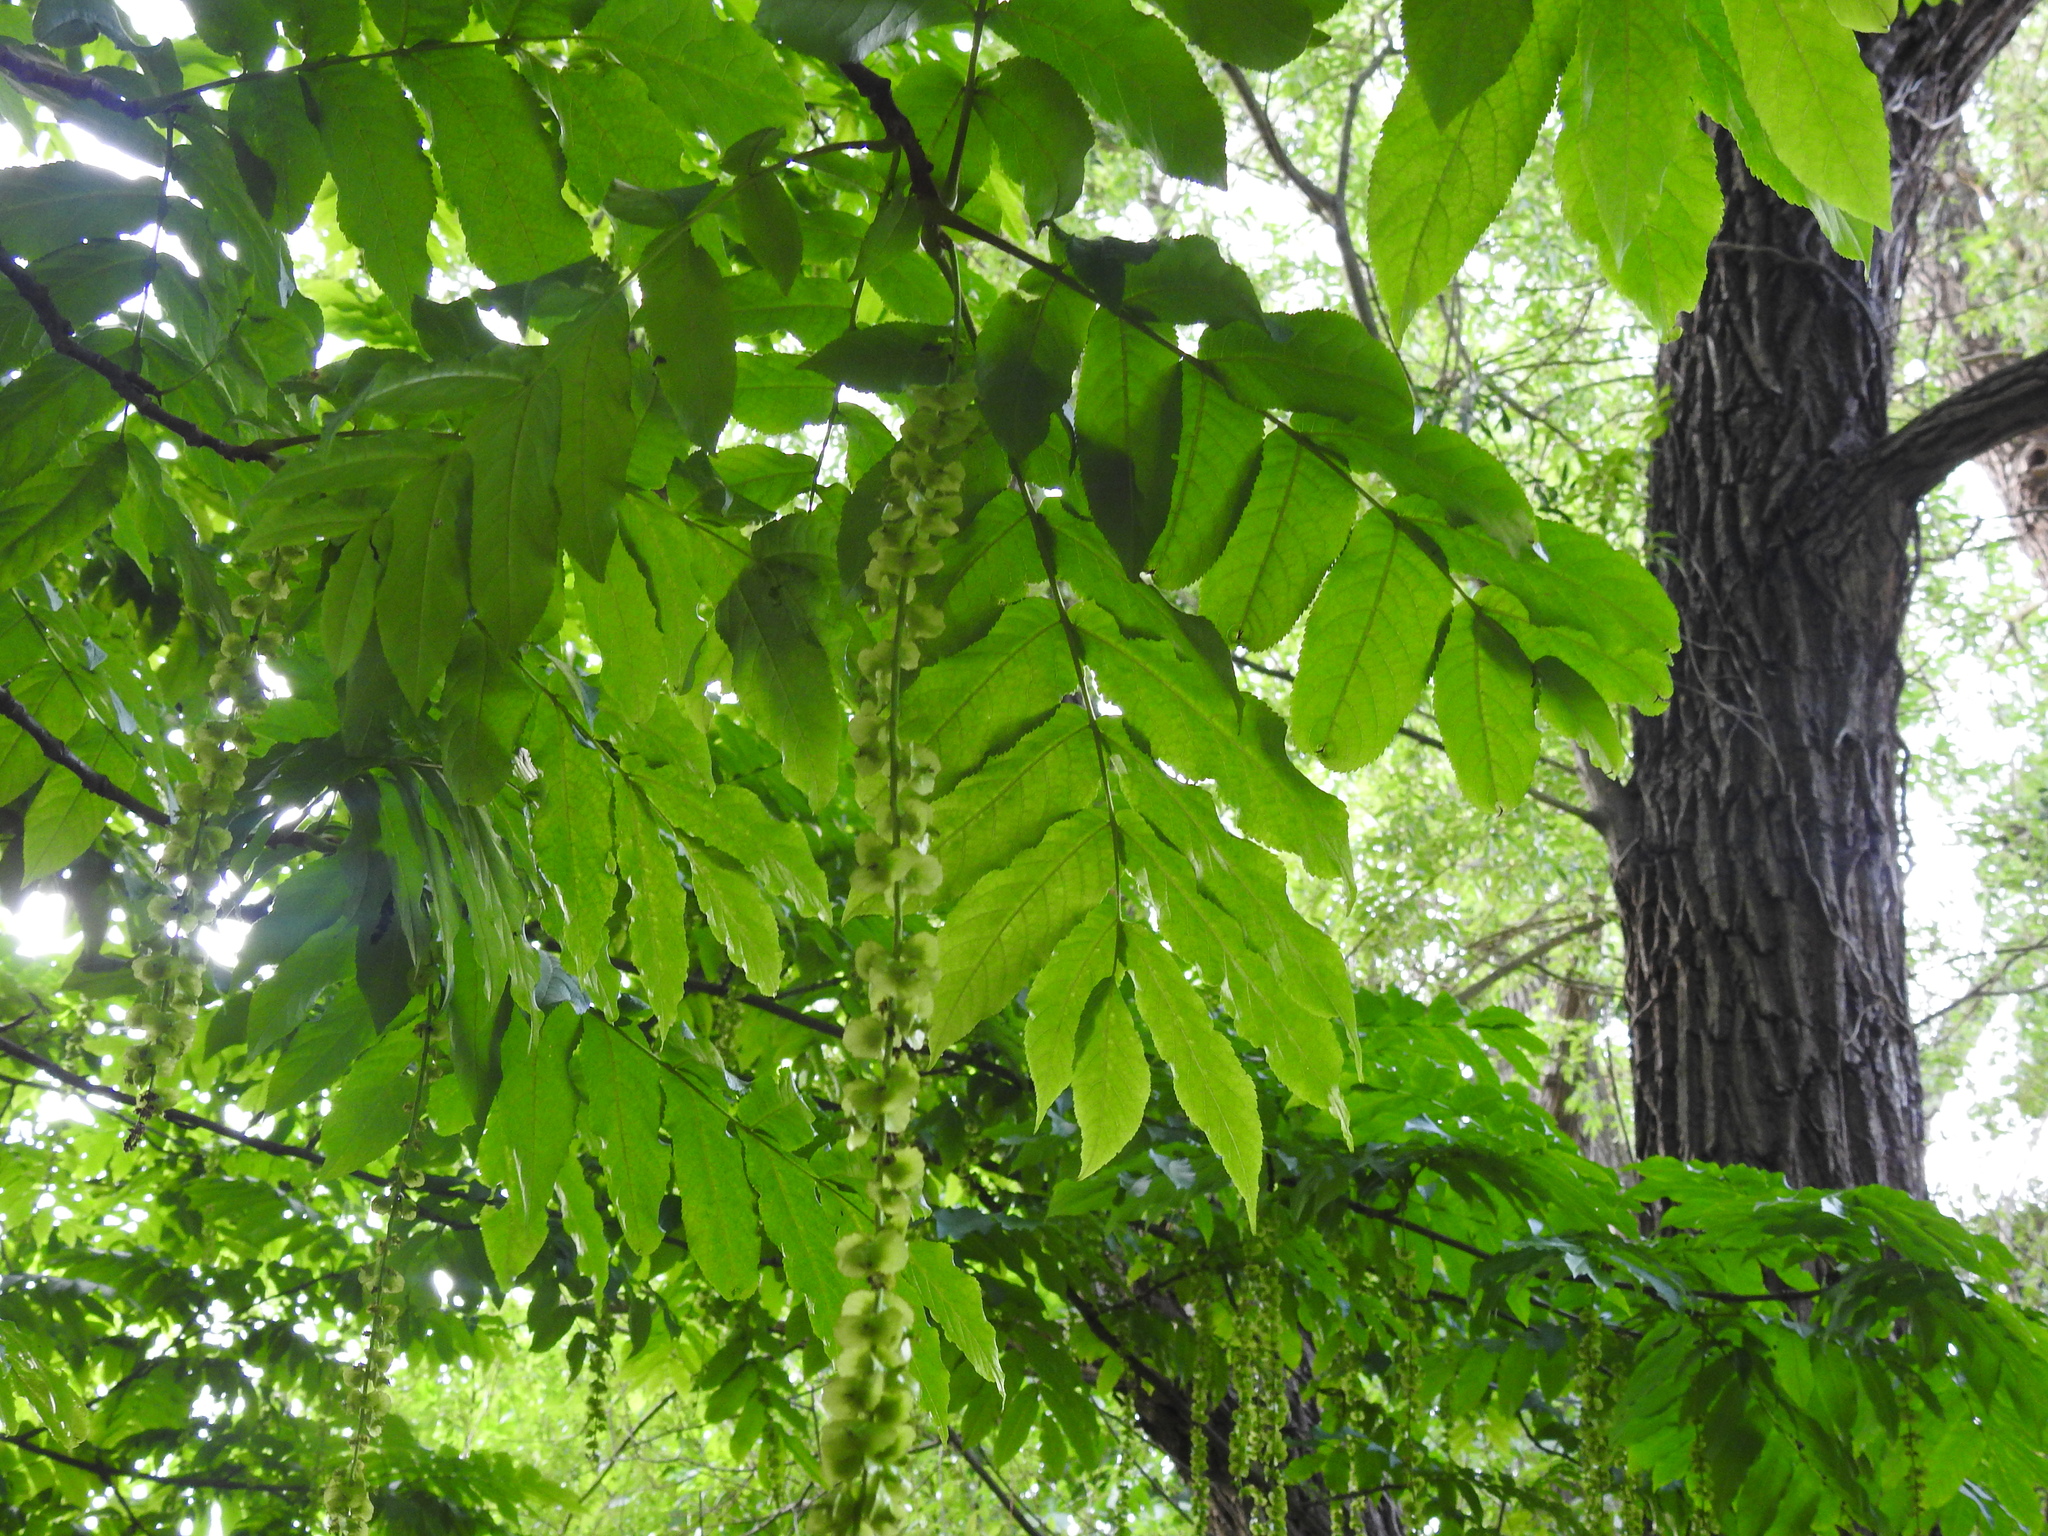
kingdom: Plantae
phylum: Tracheophyta
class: Magnoliopsida
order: Fagales
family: Juglandaceae
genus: Pterocarya
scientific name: Pterocarya fraxinifolia
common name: Caucasian wingnut
